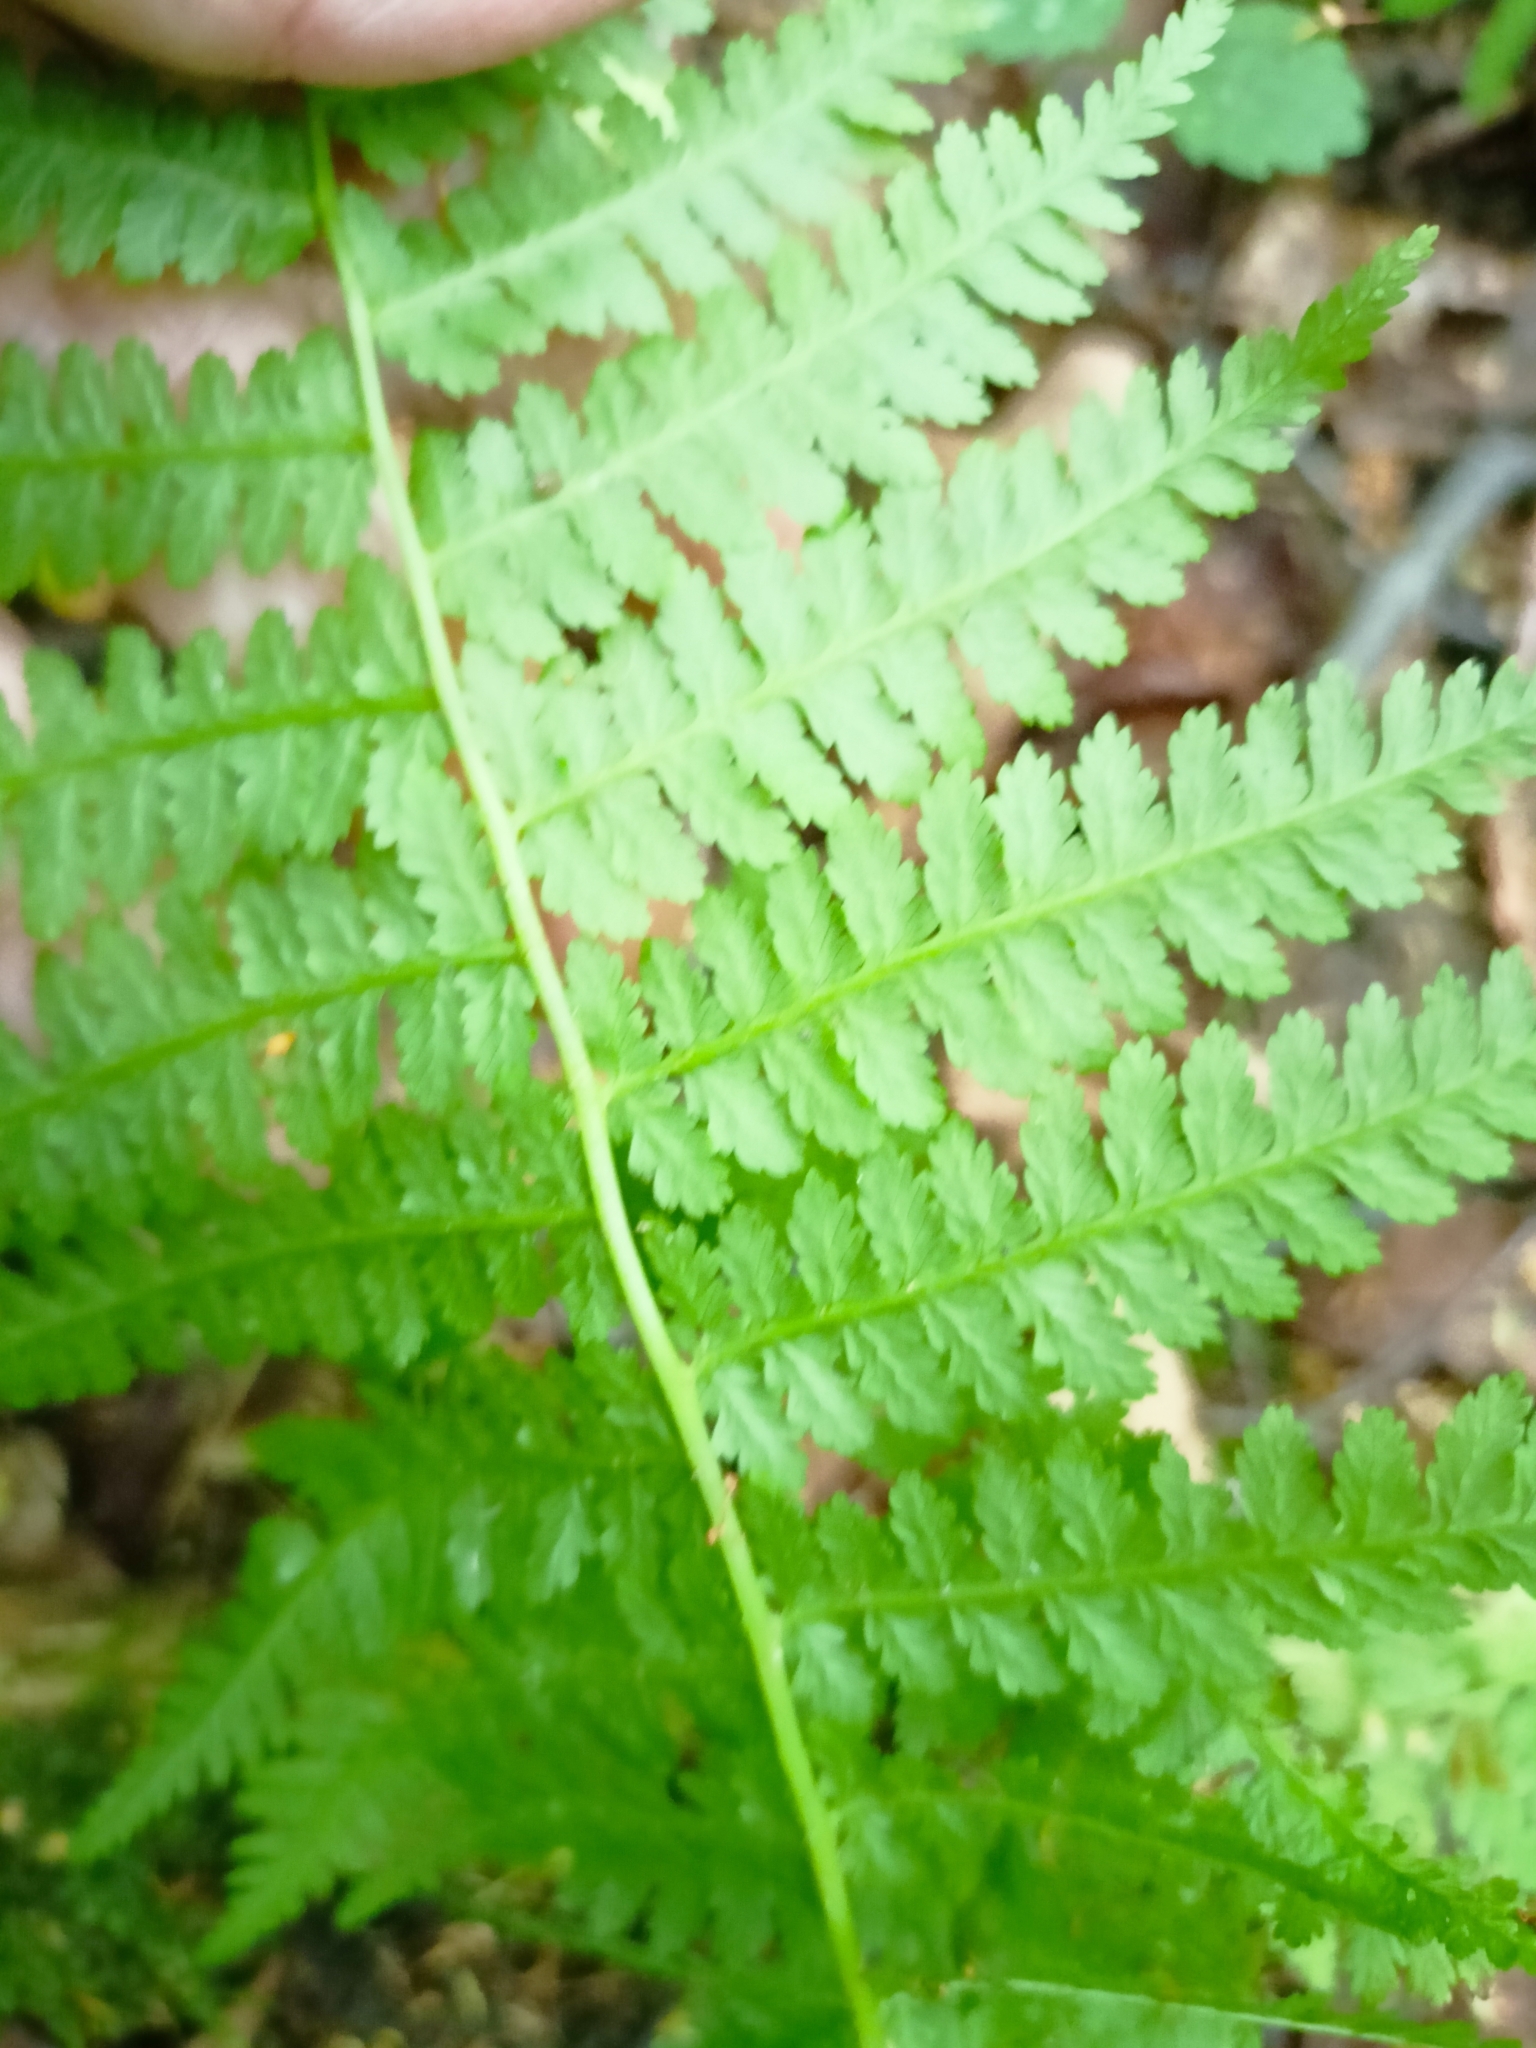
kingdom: Plantae
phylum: Tracheophyta
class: Polypodiopsida
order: Polypodiales
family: Athyriaceae
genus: Athyrium
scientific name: Athyrium filix-femina
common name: Lady fern
